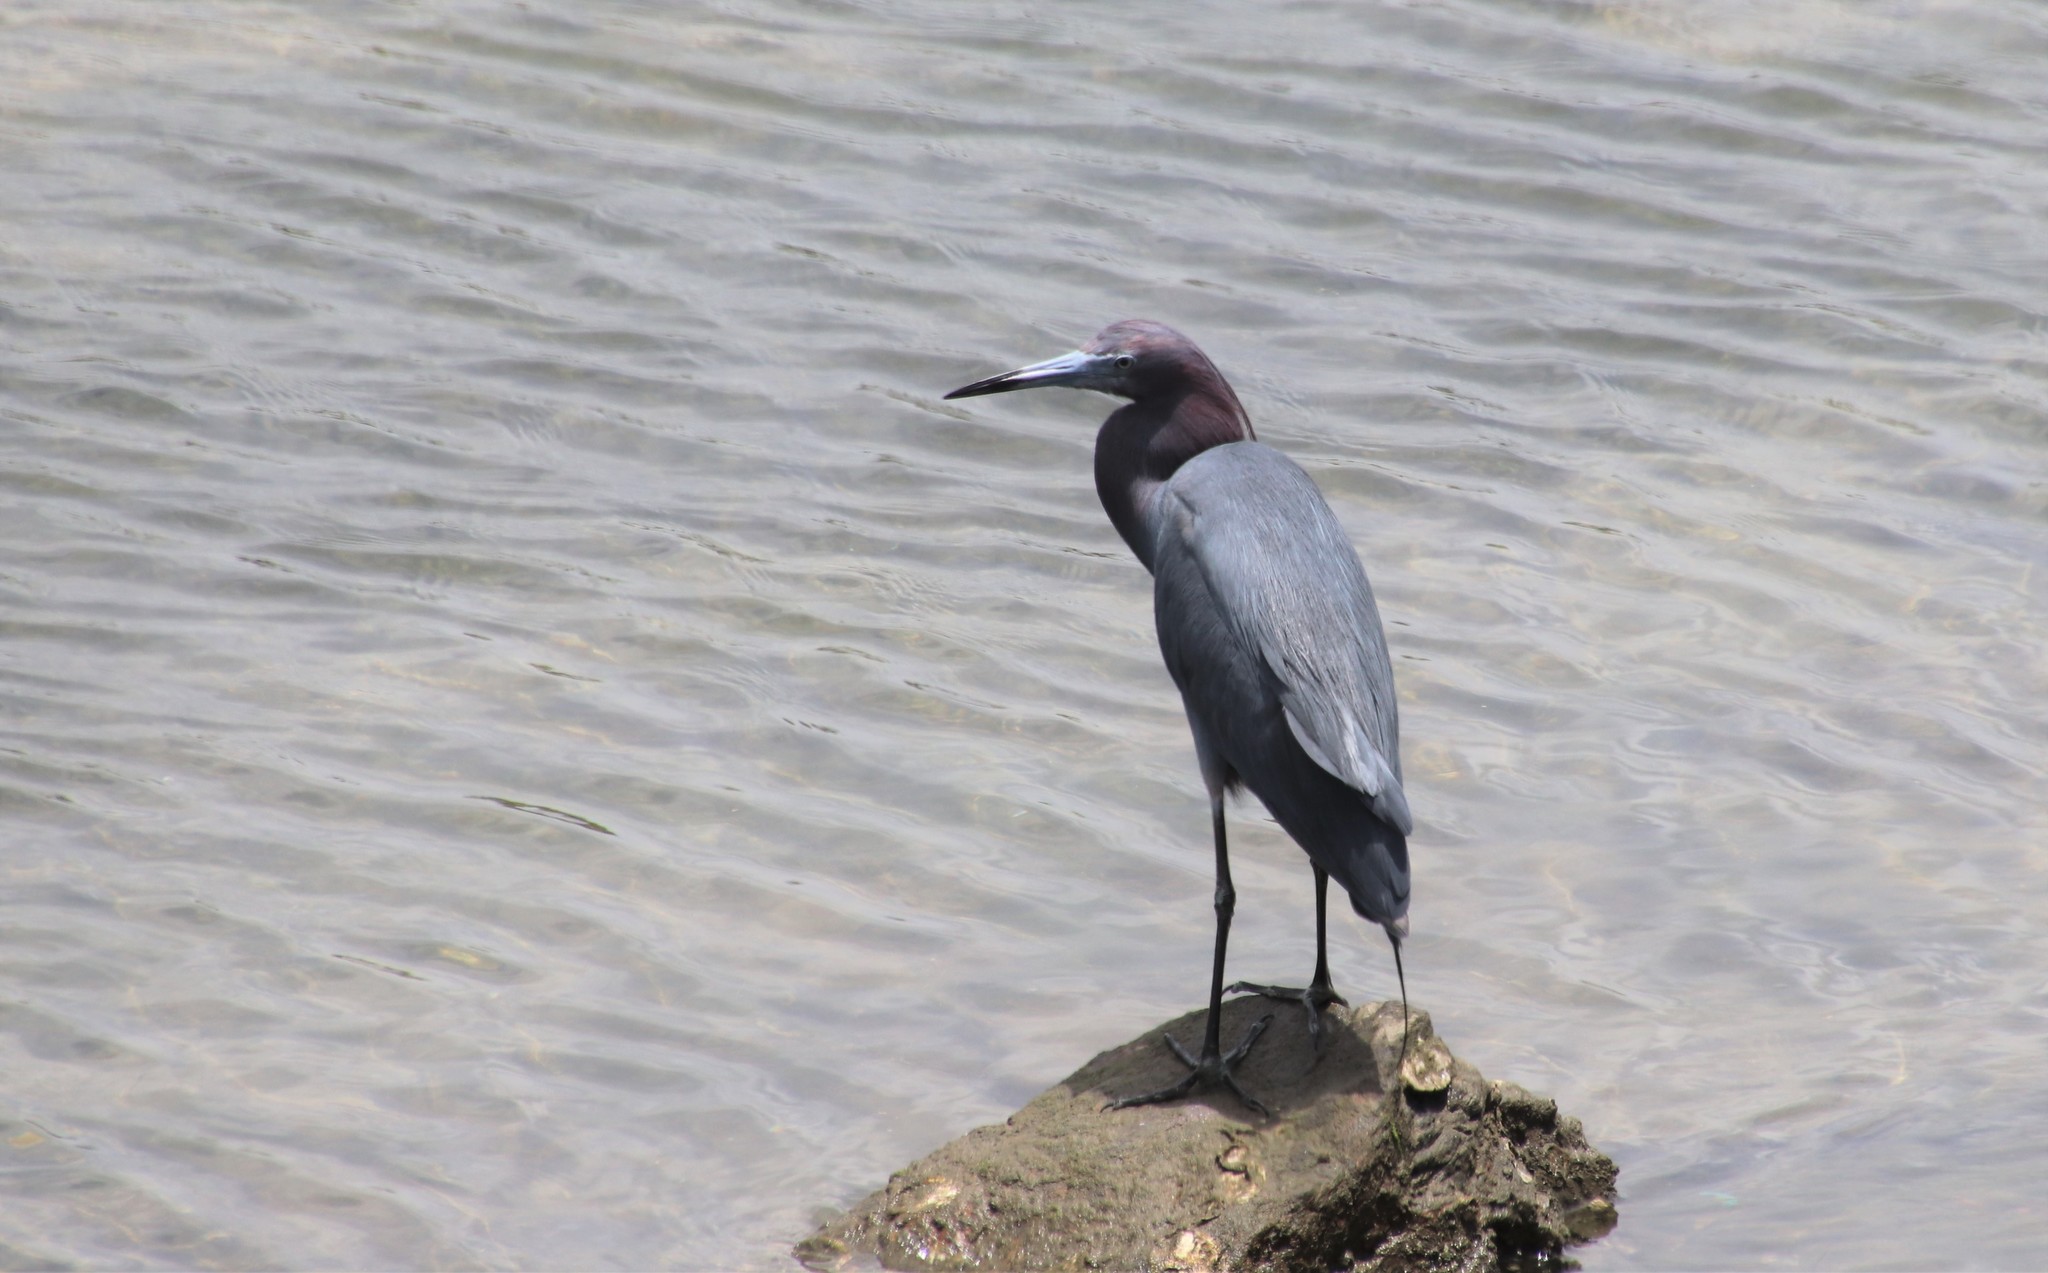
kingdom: Animalia
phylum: Chordata
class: Aves
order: Pelecaniformes
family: Ardeidae
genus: Egretta
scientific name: Egretta caerulea
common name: Little blue heron
